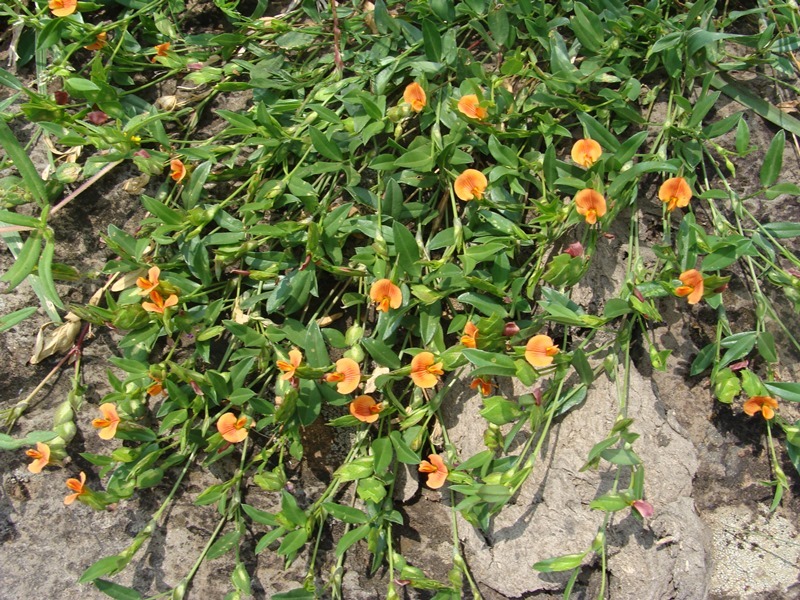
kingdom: Plantae
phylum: Tracheophyta
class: Magnoliopsida
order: Fabales
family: Fabaceae
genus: Zornia
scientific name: Zornia diphylla
